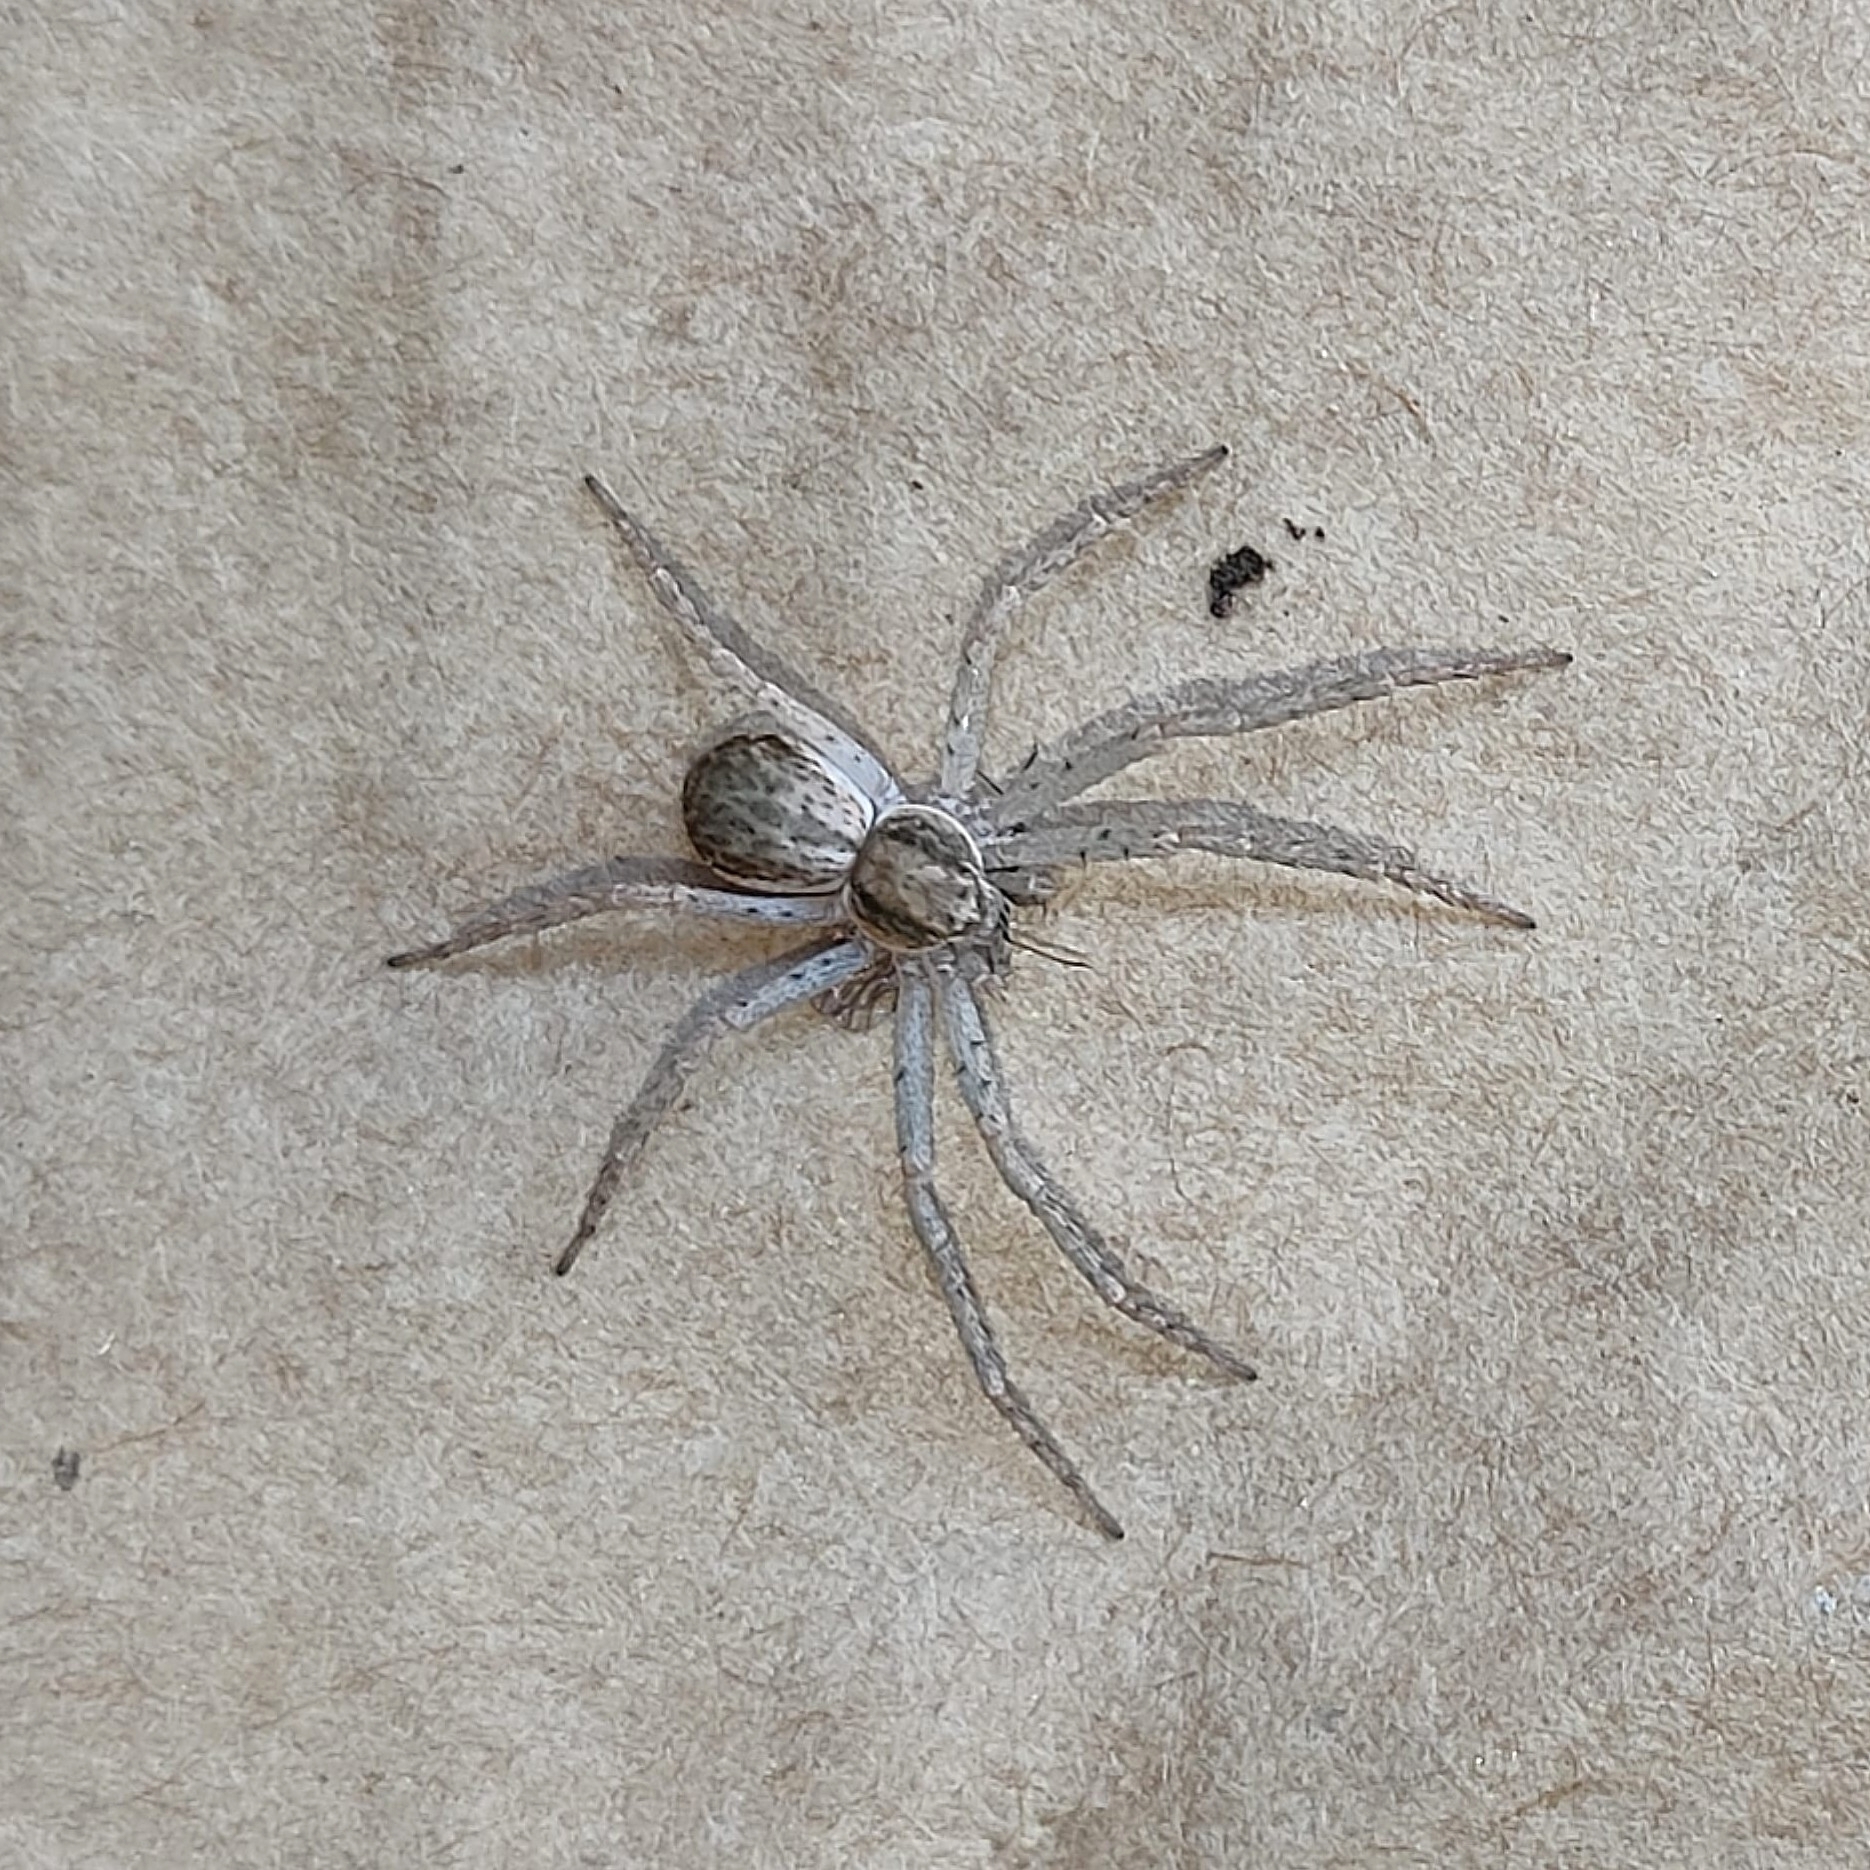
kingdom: Animalia
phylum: Arthropoda
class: Arachnida
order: Araneae
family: Philodromidae
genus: Philodromus
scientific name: Philodromus dispar
